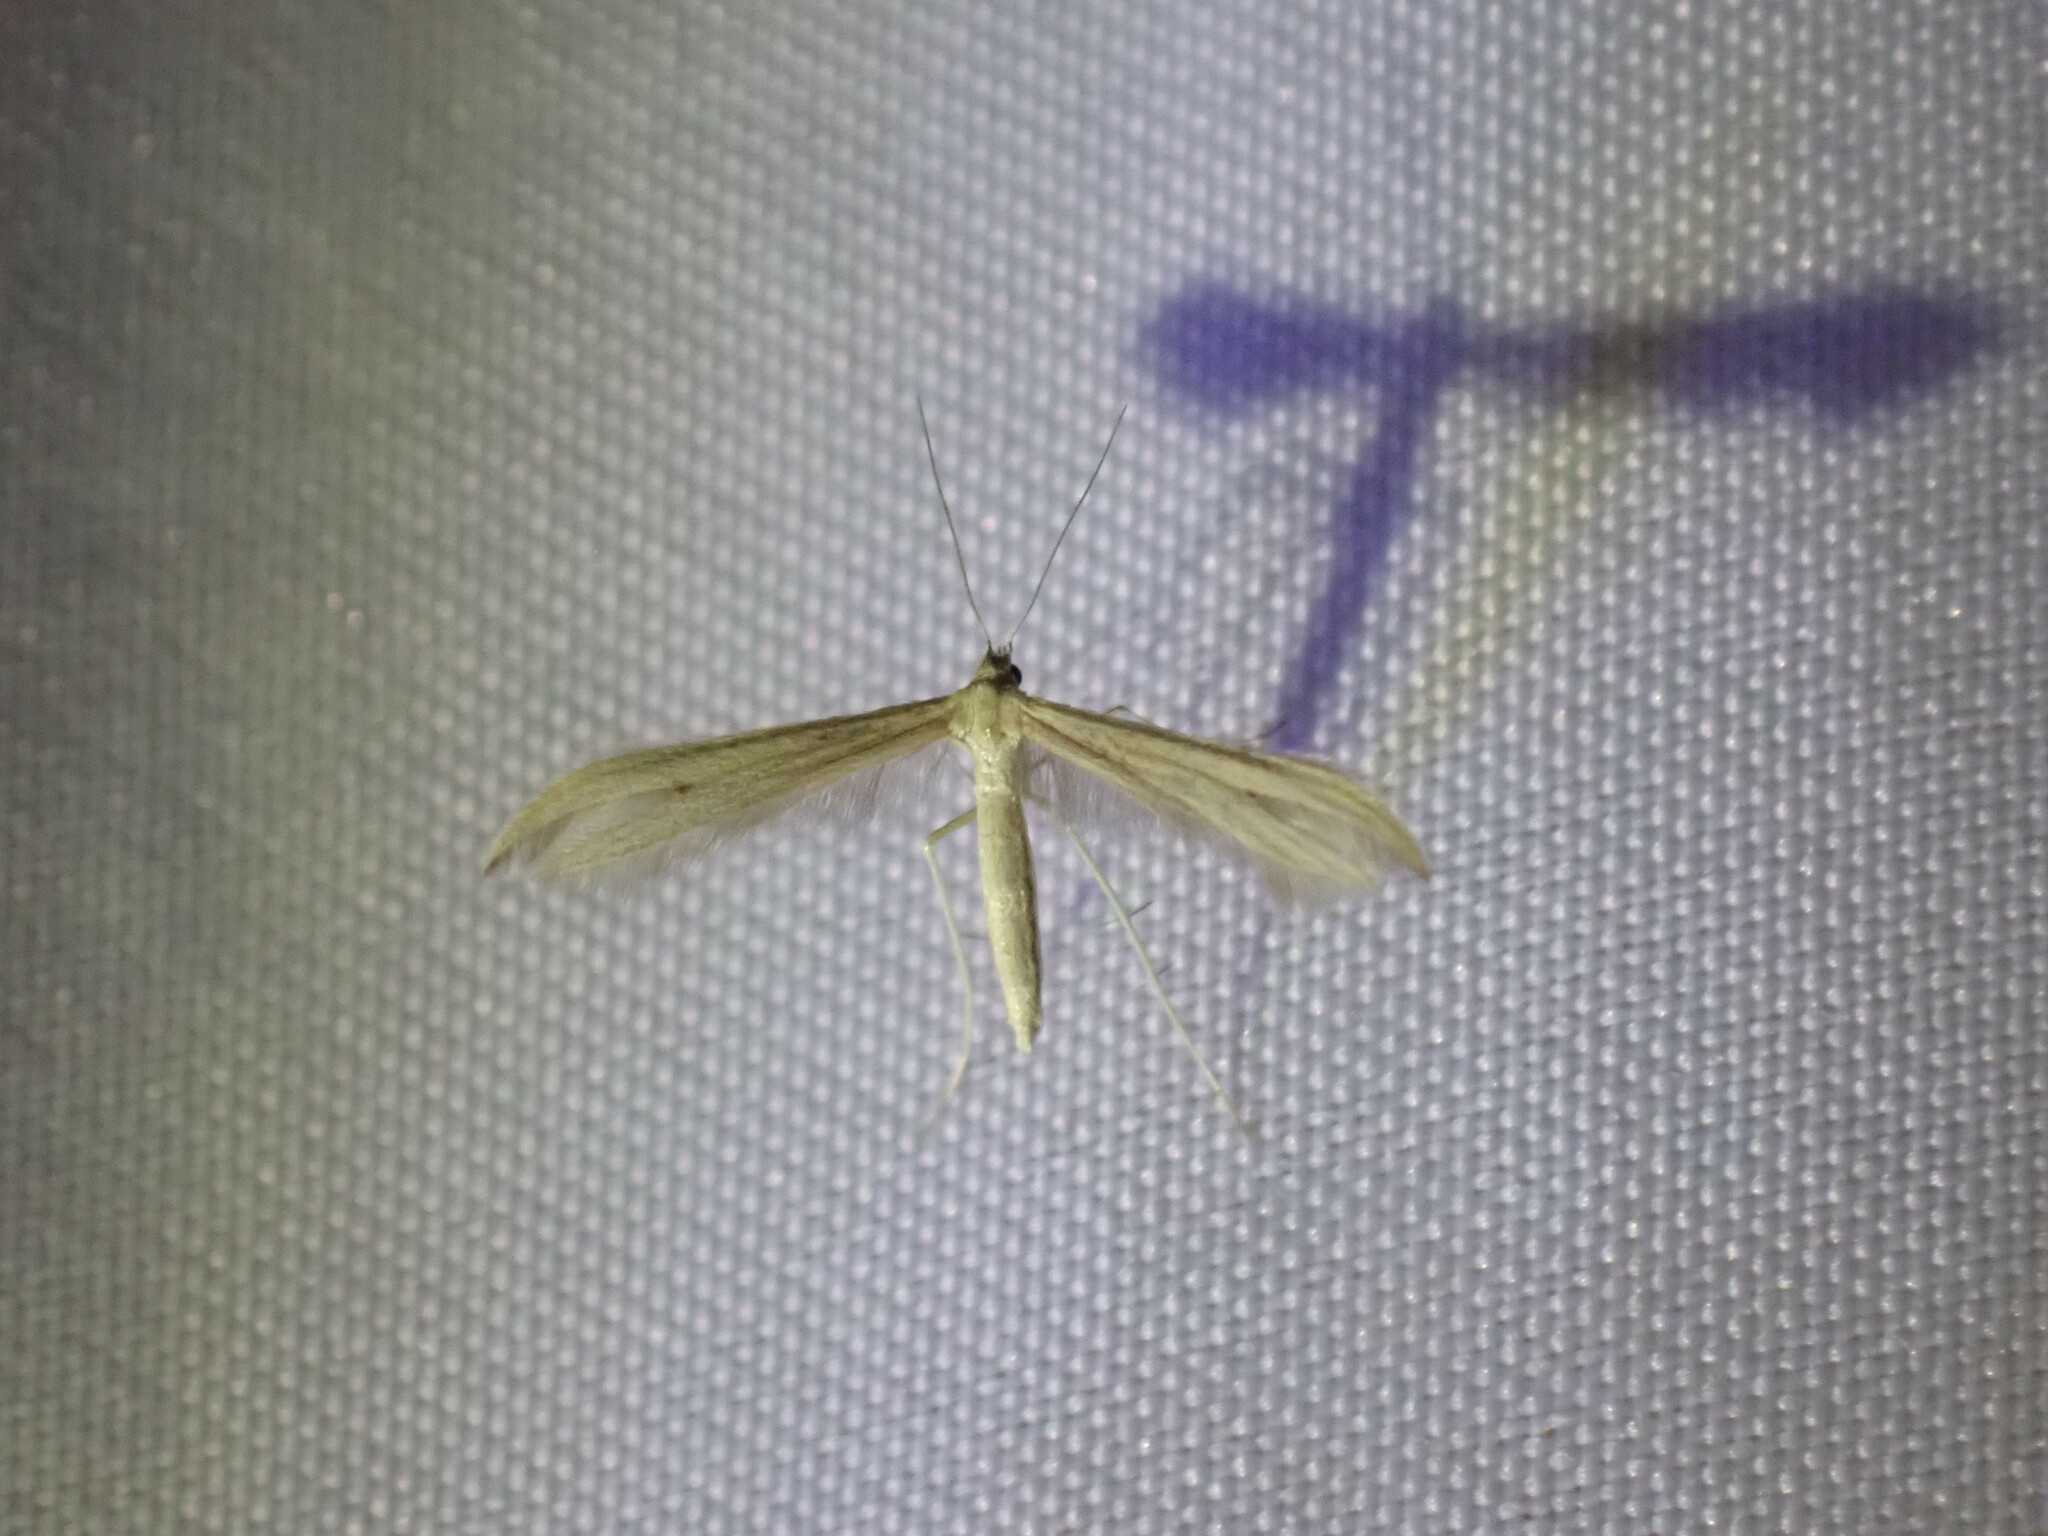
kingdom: Animalia
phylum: Arthropoda
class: Insecta
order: Lepidoptera
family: Pterophoridae
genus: Hellinsia
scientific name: Hellinsia homodactylus
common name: Plain plume moth
